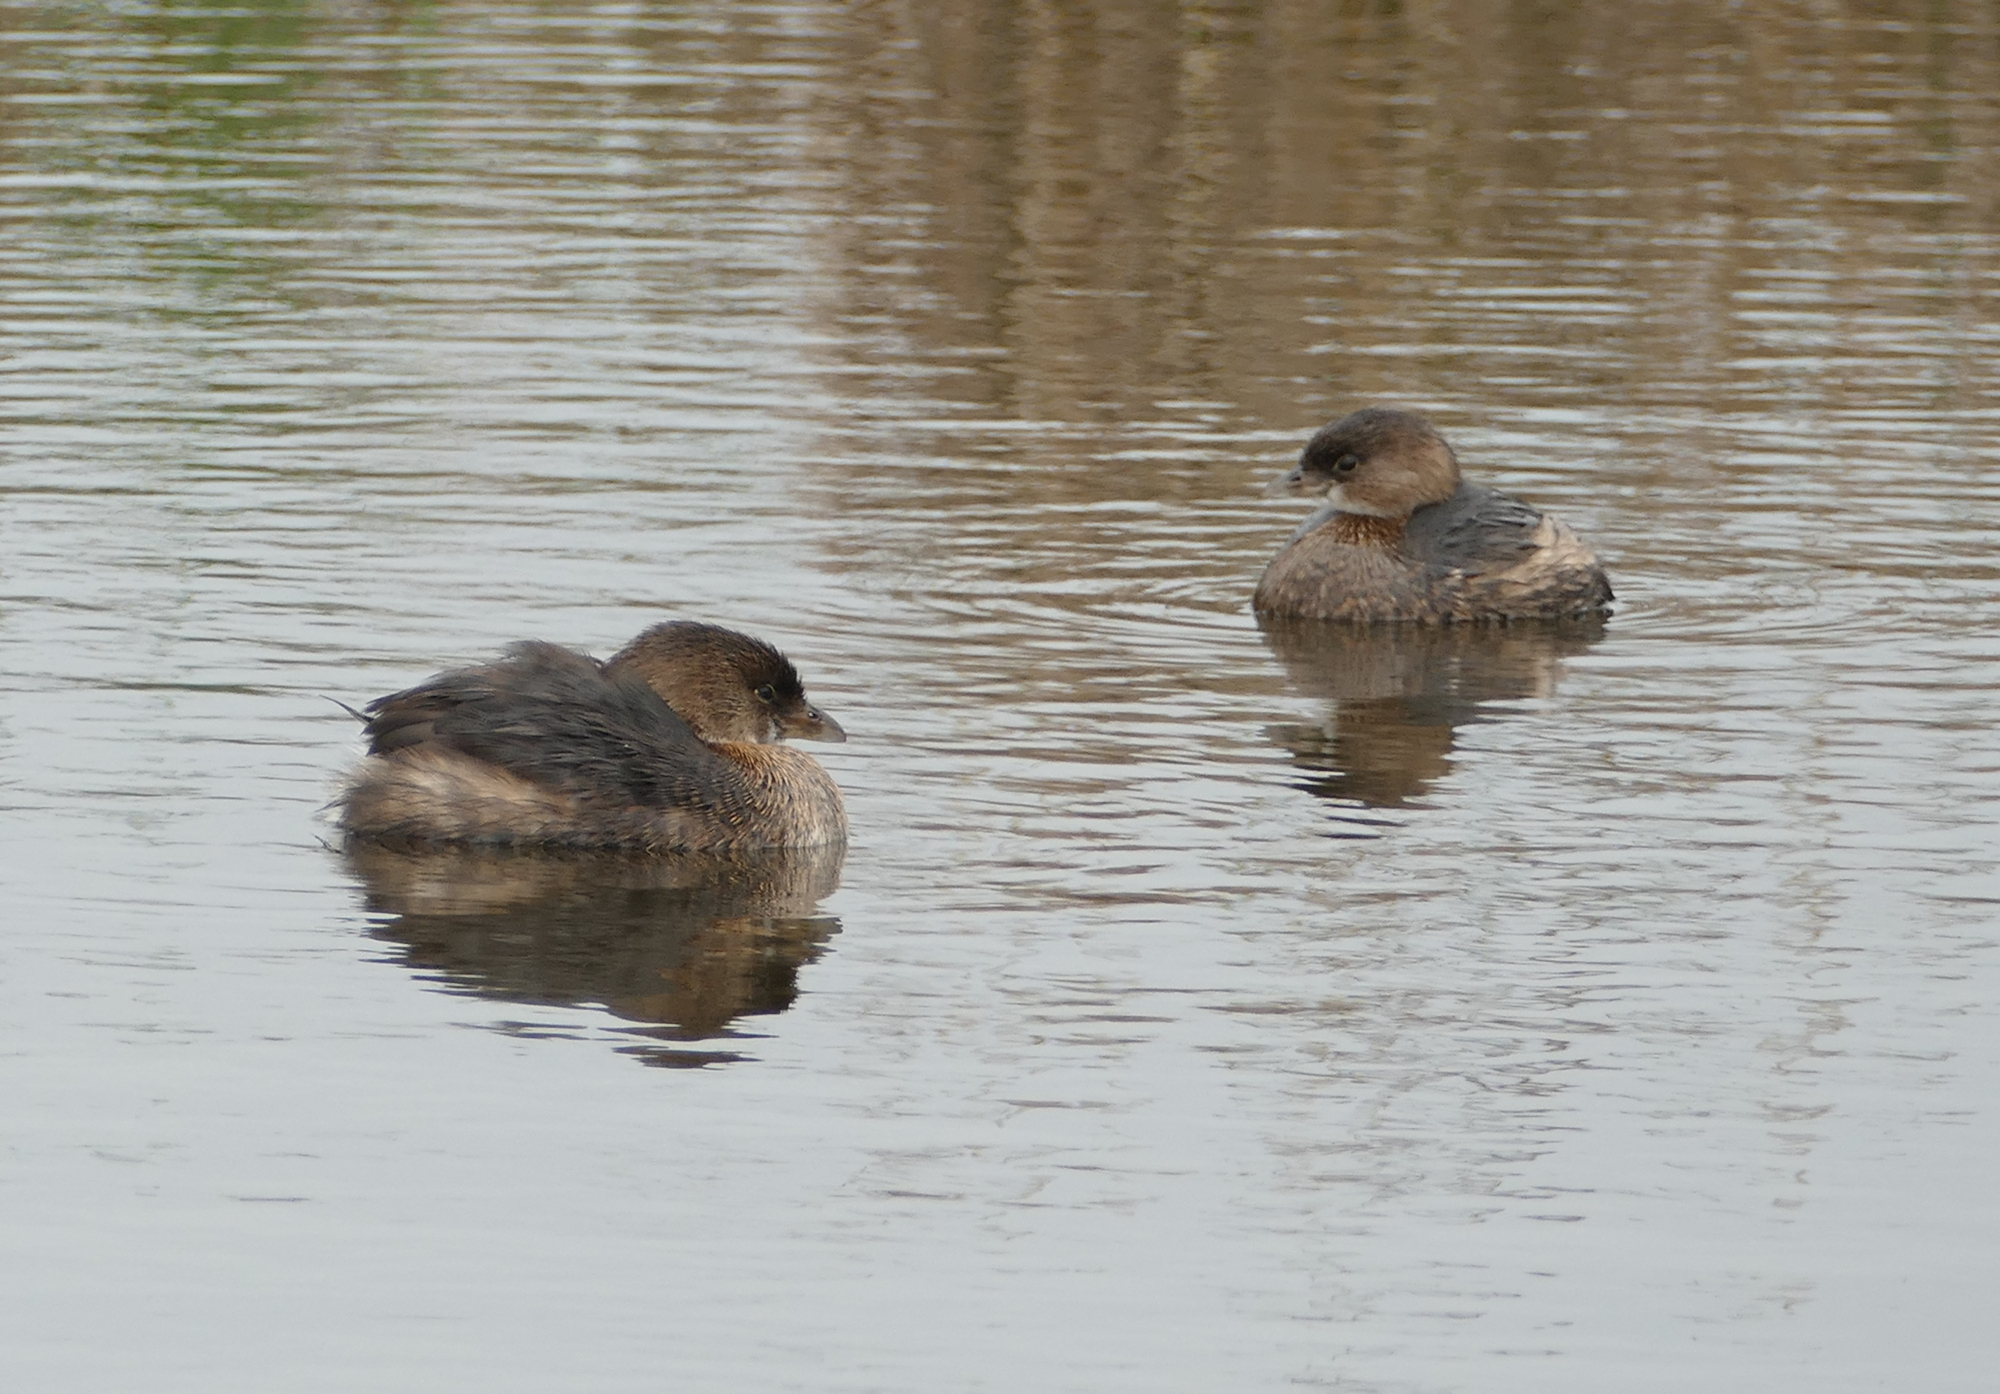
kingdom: Animalia
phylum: Chordata
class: Aves
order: Podicipediformes
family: Podicipedidae
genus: Podilymbus
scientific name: Podilymbus podiceps
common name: Pied-billed grebe
